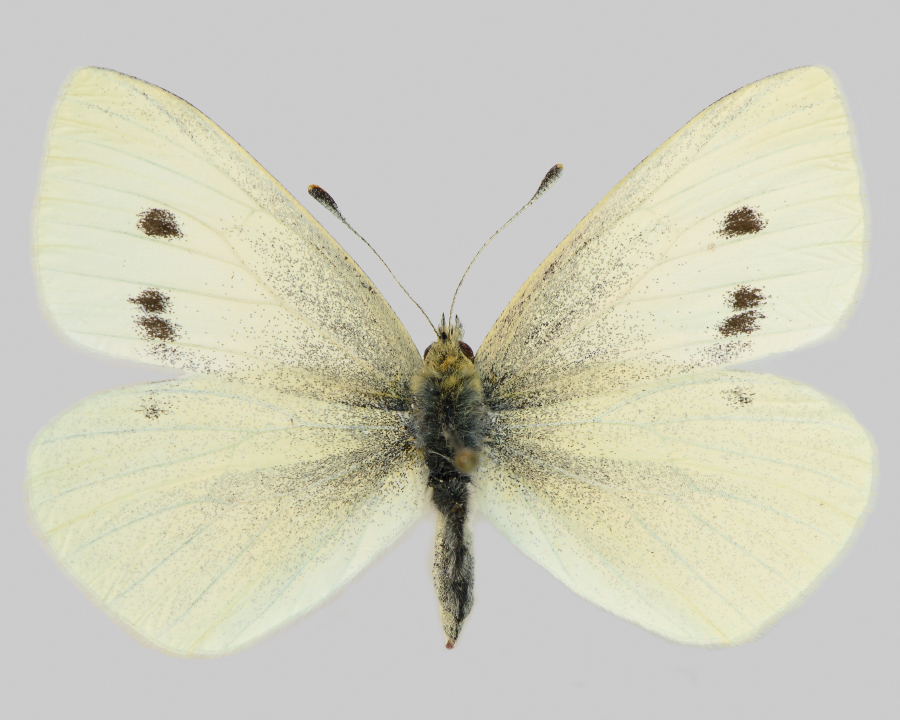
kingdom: Animalia
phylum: Arthropoda
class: Insecta
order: Lepidoptera
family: Pieridae
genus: Pieris
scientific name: Pieris rapae
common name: Small white
